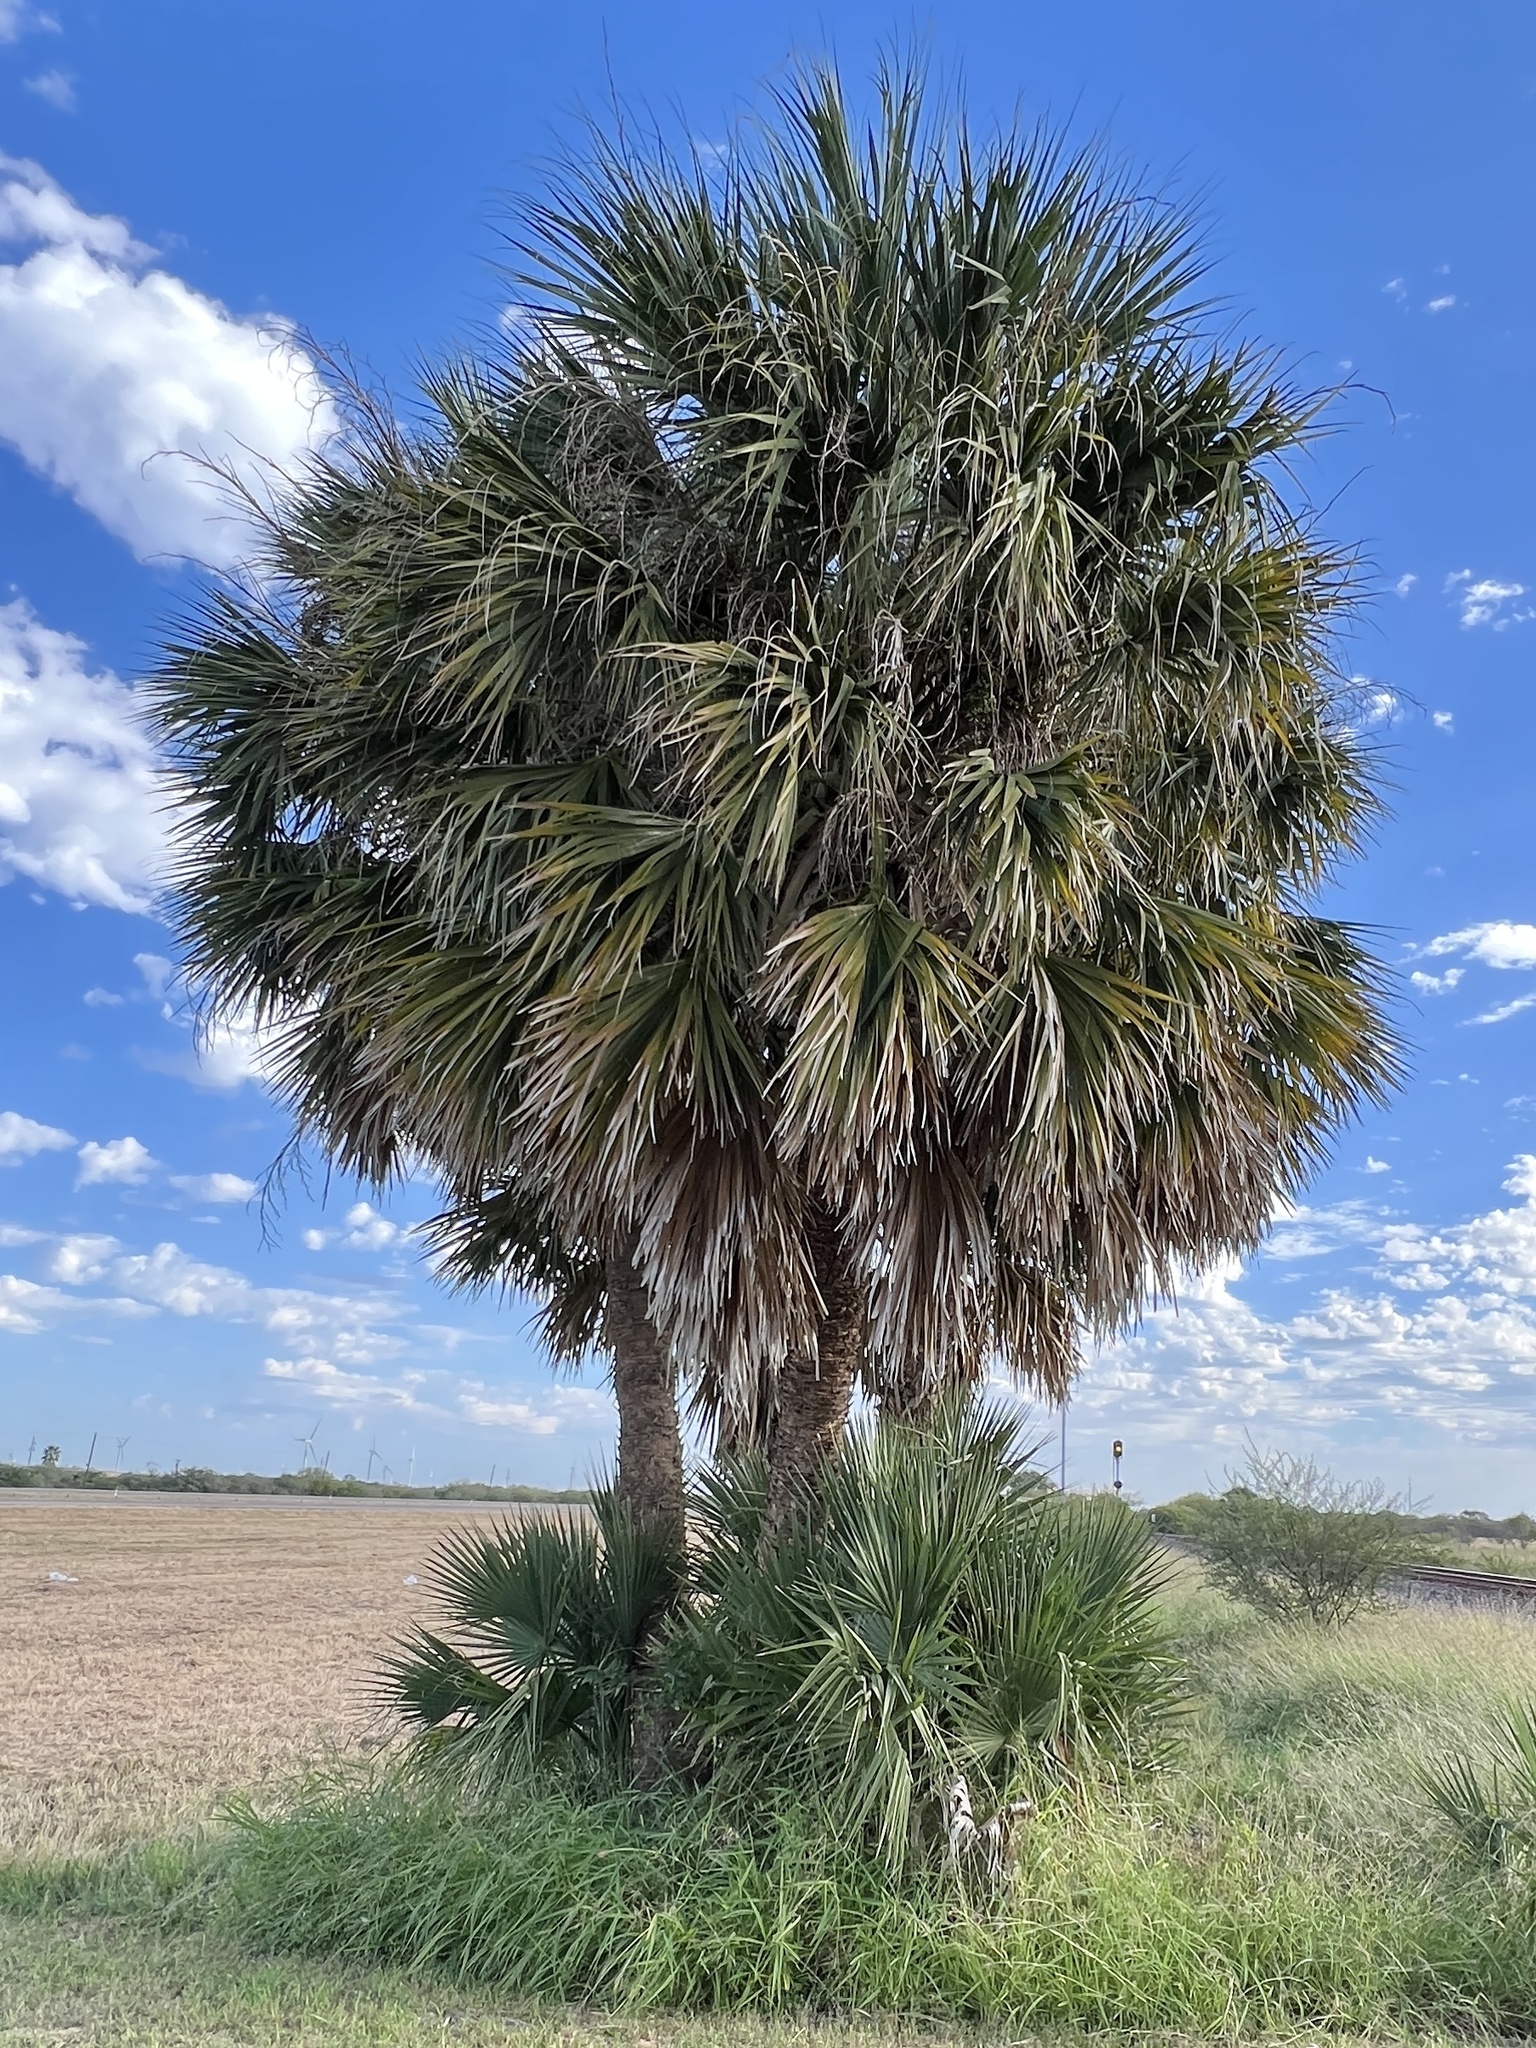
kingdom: Plantae
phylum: Tracheophyta
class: Liliopsida
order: Arecales
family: Arecaceae
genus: Sabal
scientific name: Sabal mexicana
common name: Texas palmetto
